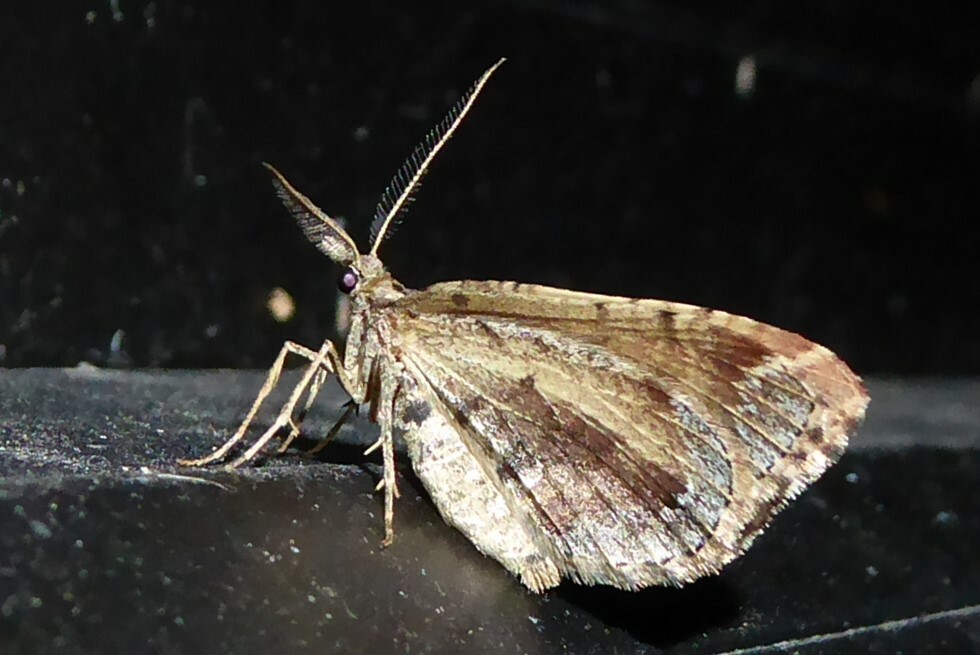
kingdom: Animalia
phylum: Arthropoda
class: Insecta
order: Lepidoptera
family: Geometridae
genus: Asaphodes
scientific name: Asaphodes aegrota
